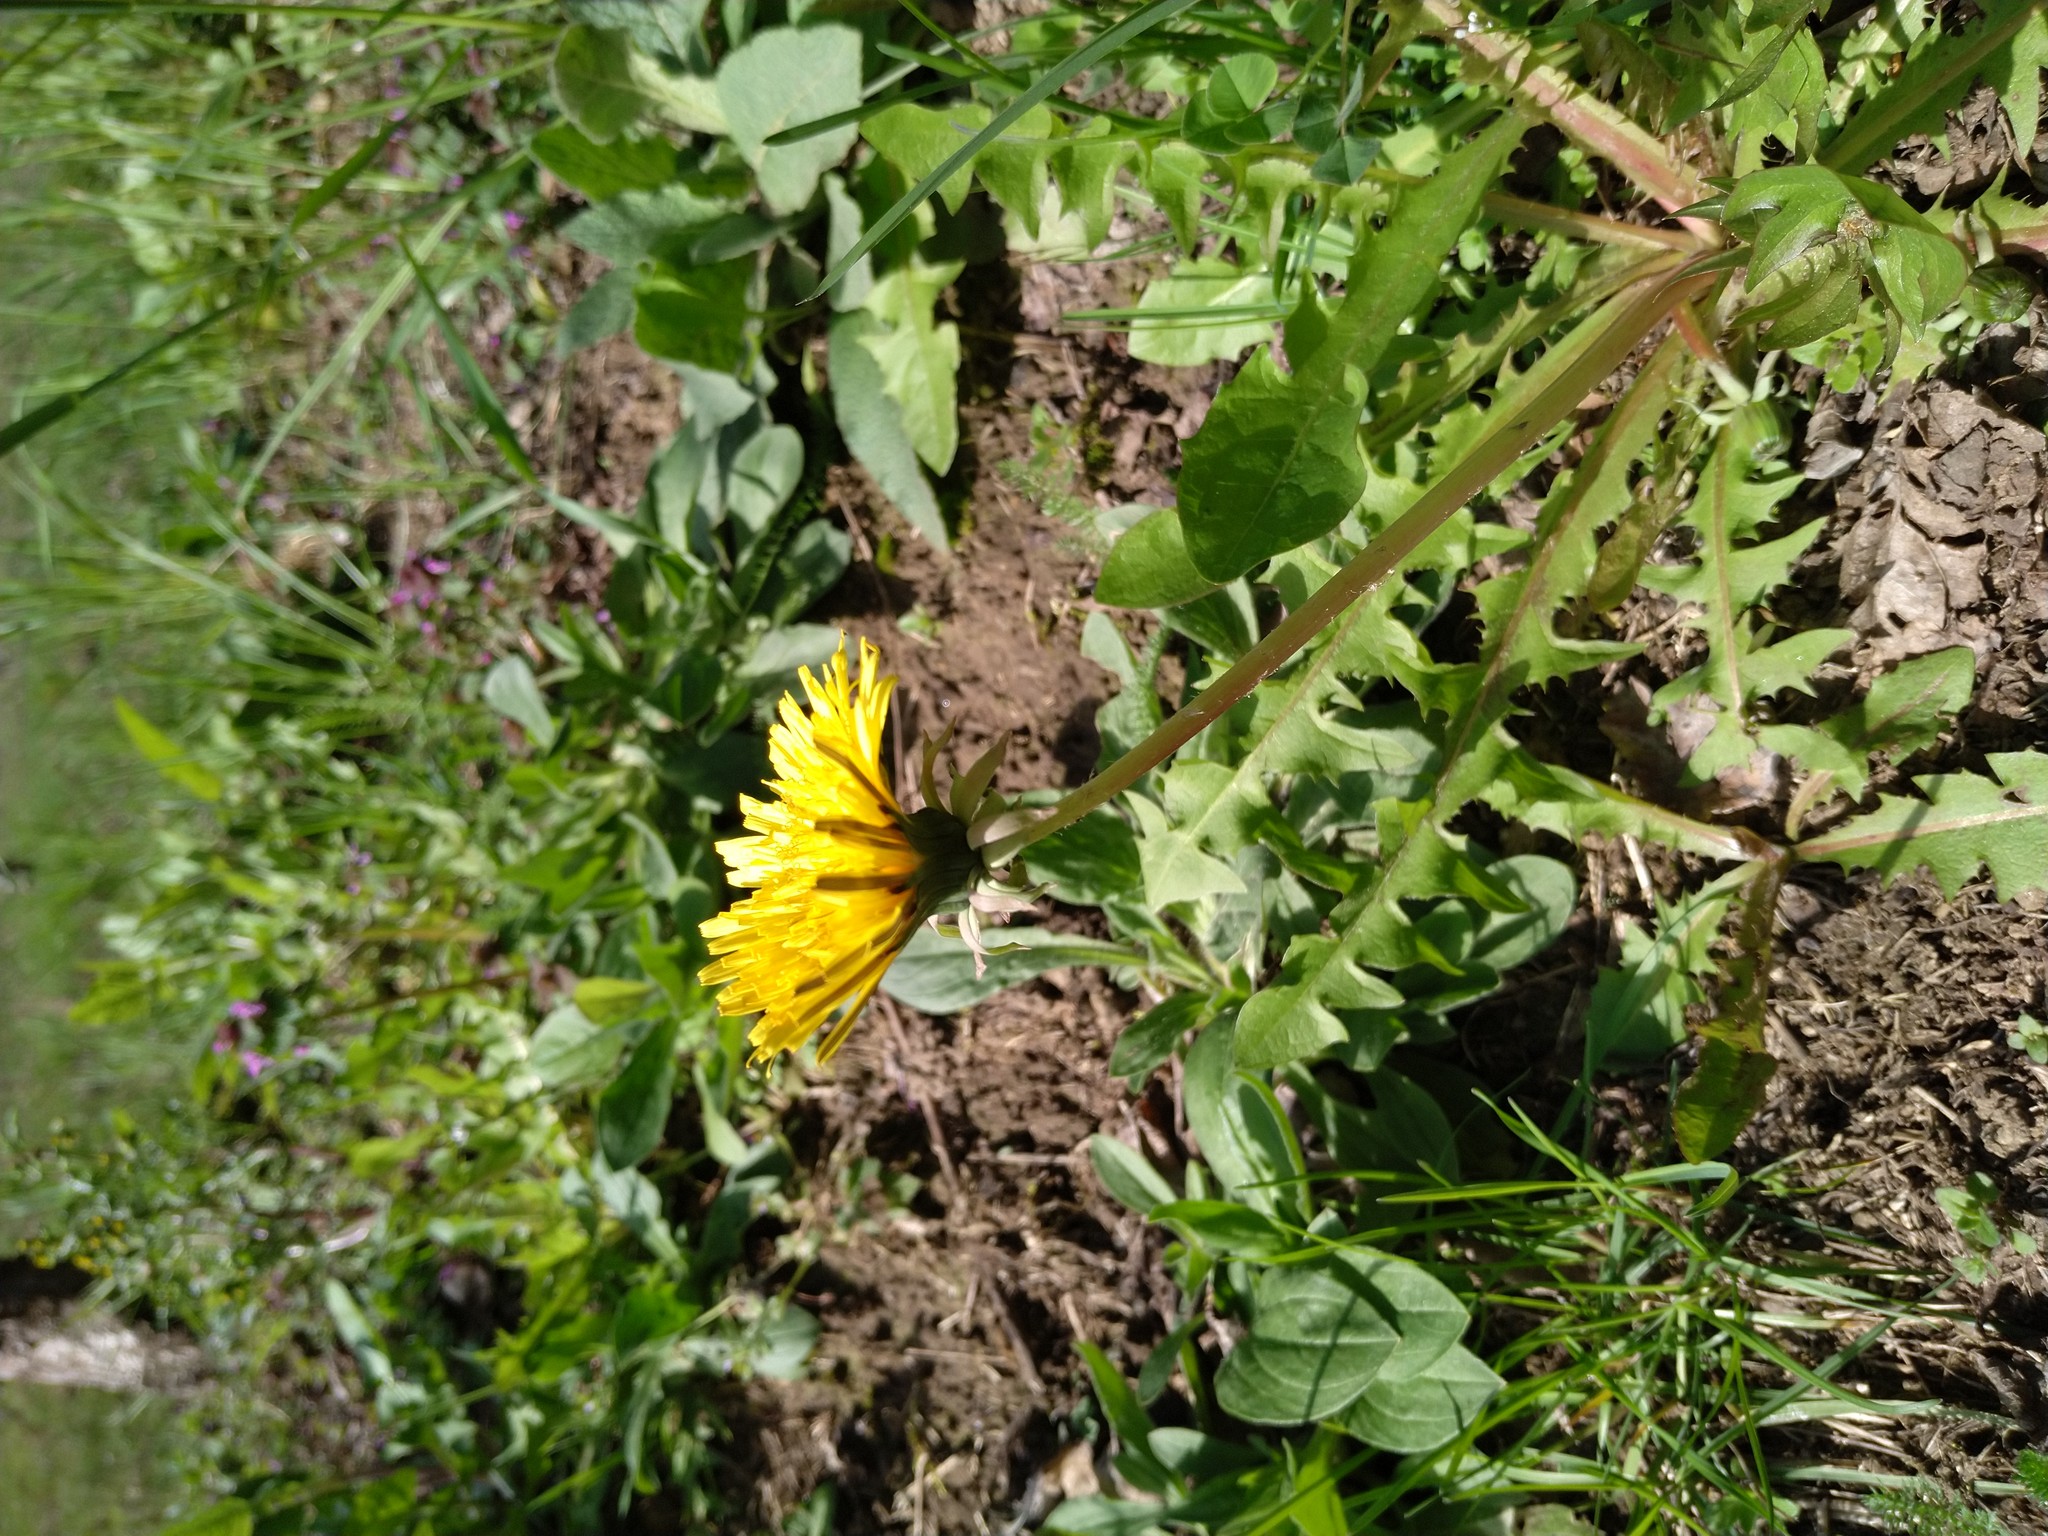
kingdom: Plantae
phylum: Tracheophyta
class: Magnoliopsida
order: Asterales
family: Asteraceae
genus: Taraxacum
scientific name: Taraxacum officinale
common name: Common dandelion
